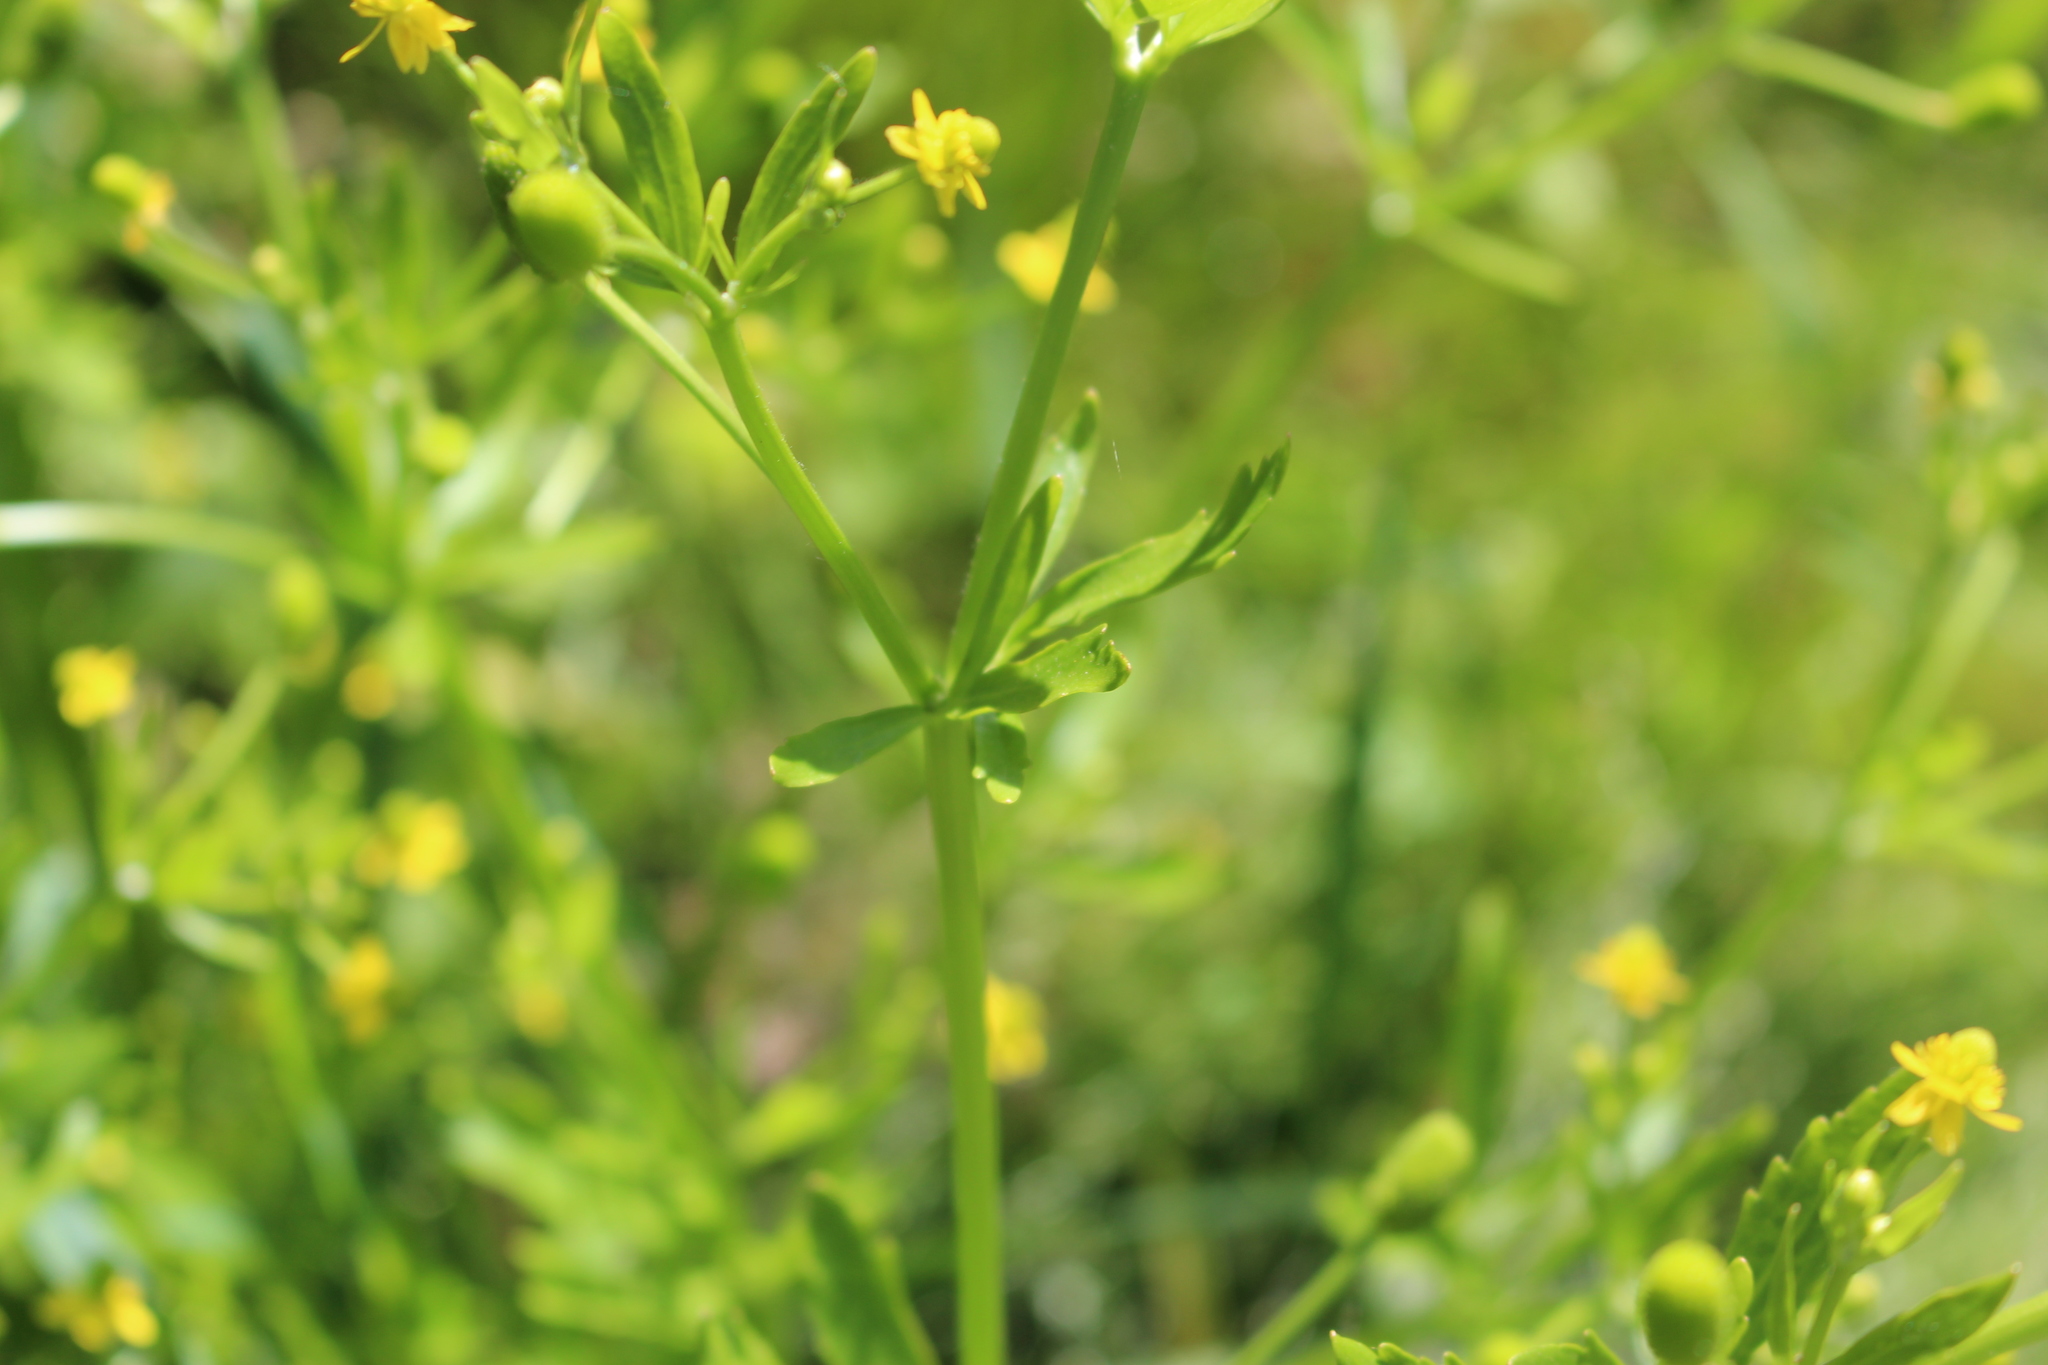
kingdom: Plantae
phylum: Tracheophyta
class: Magnoliopsida
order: Ranunculales
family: Ranunculaceae
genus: Ranunculus
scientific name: Ranunculus sceleratus
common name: Celery-leaved buttercup
